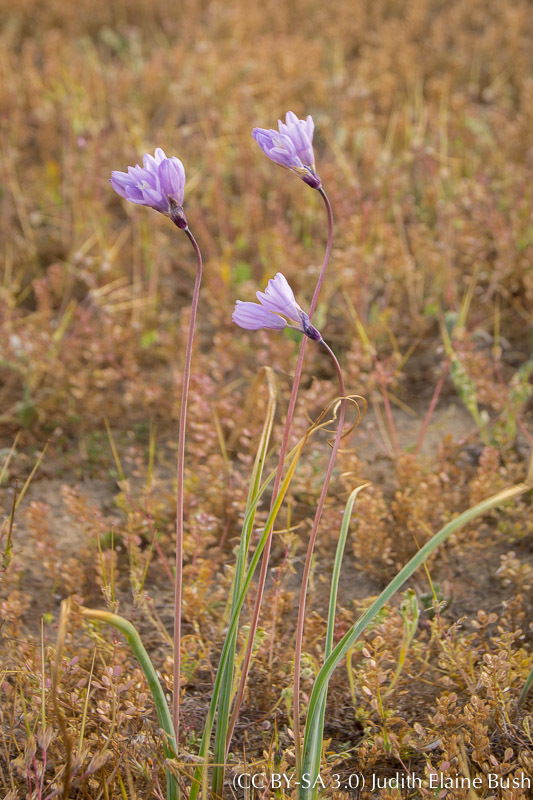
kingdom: Plantae
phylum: Tracheophyta
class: Liliopsida
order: Asparagales
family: Asparagaceae
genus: Dipterostemon
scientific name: Dipterostemon capitatus
